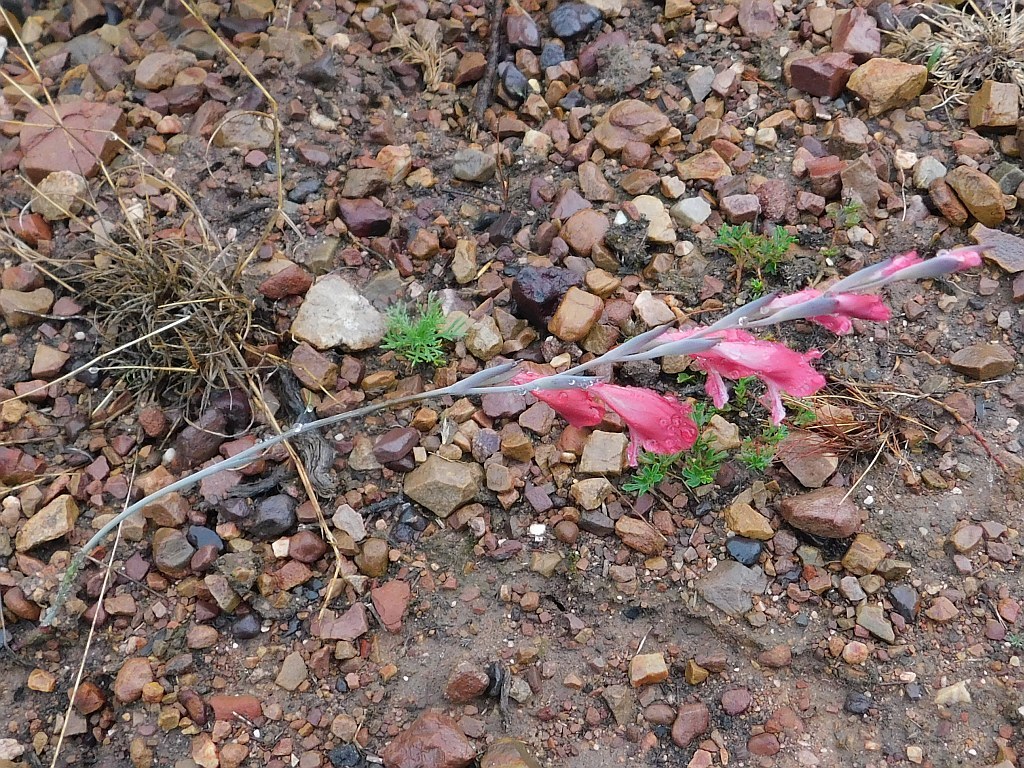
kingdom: Plantae
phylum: Tracheophyta
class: Liliopsida
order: Asparagales
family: Iridaceae
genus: Gladiolus
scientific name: Gladiolus brevifolius
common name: March pypie
